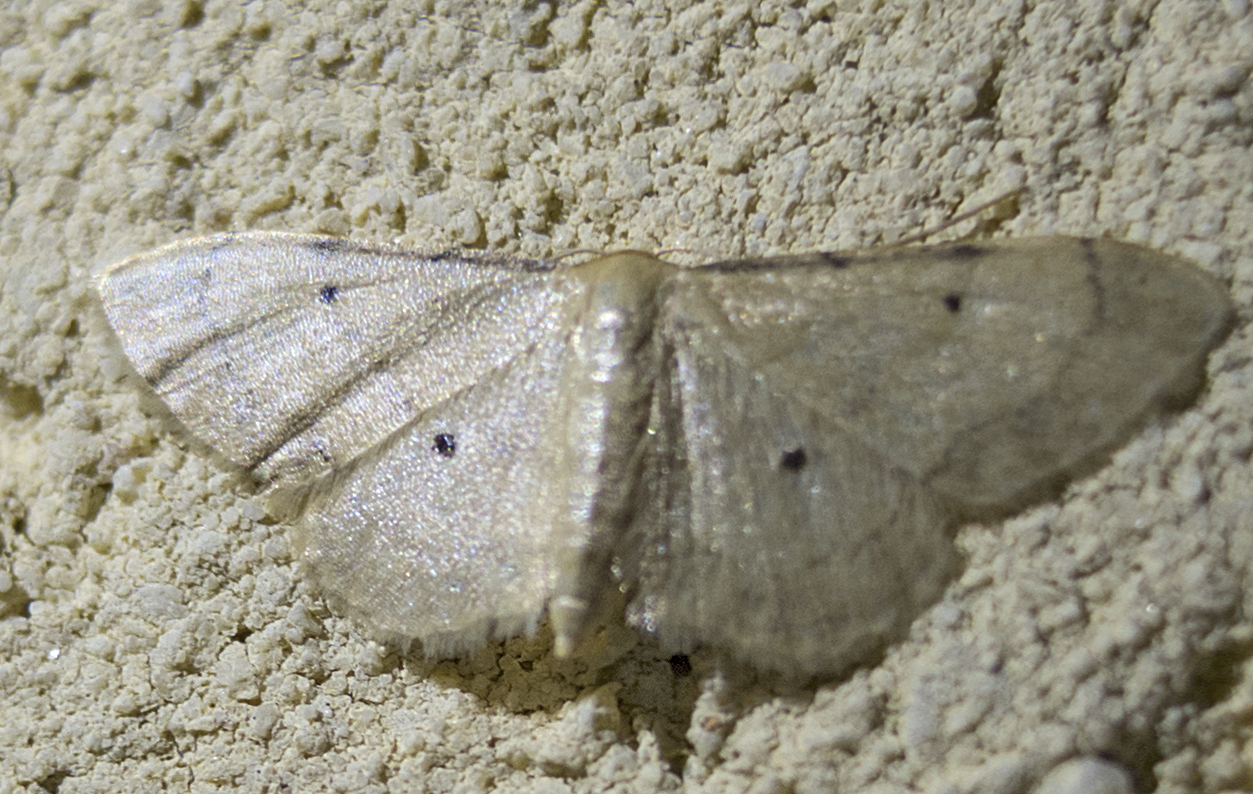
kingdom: Animalia
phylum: Arthropoda
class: Insecta
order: Lepidoptera
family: Geometridae
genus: Idaea
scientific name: Idaea politaria
